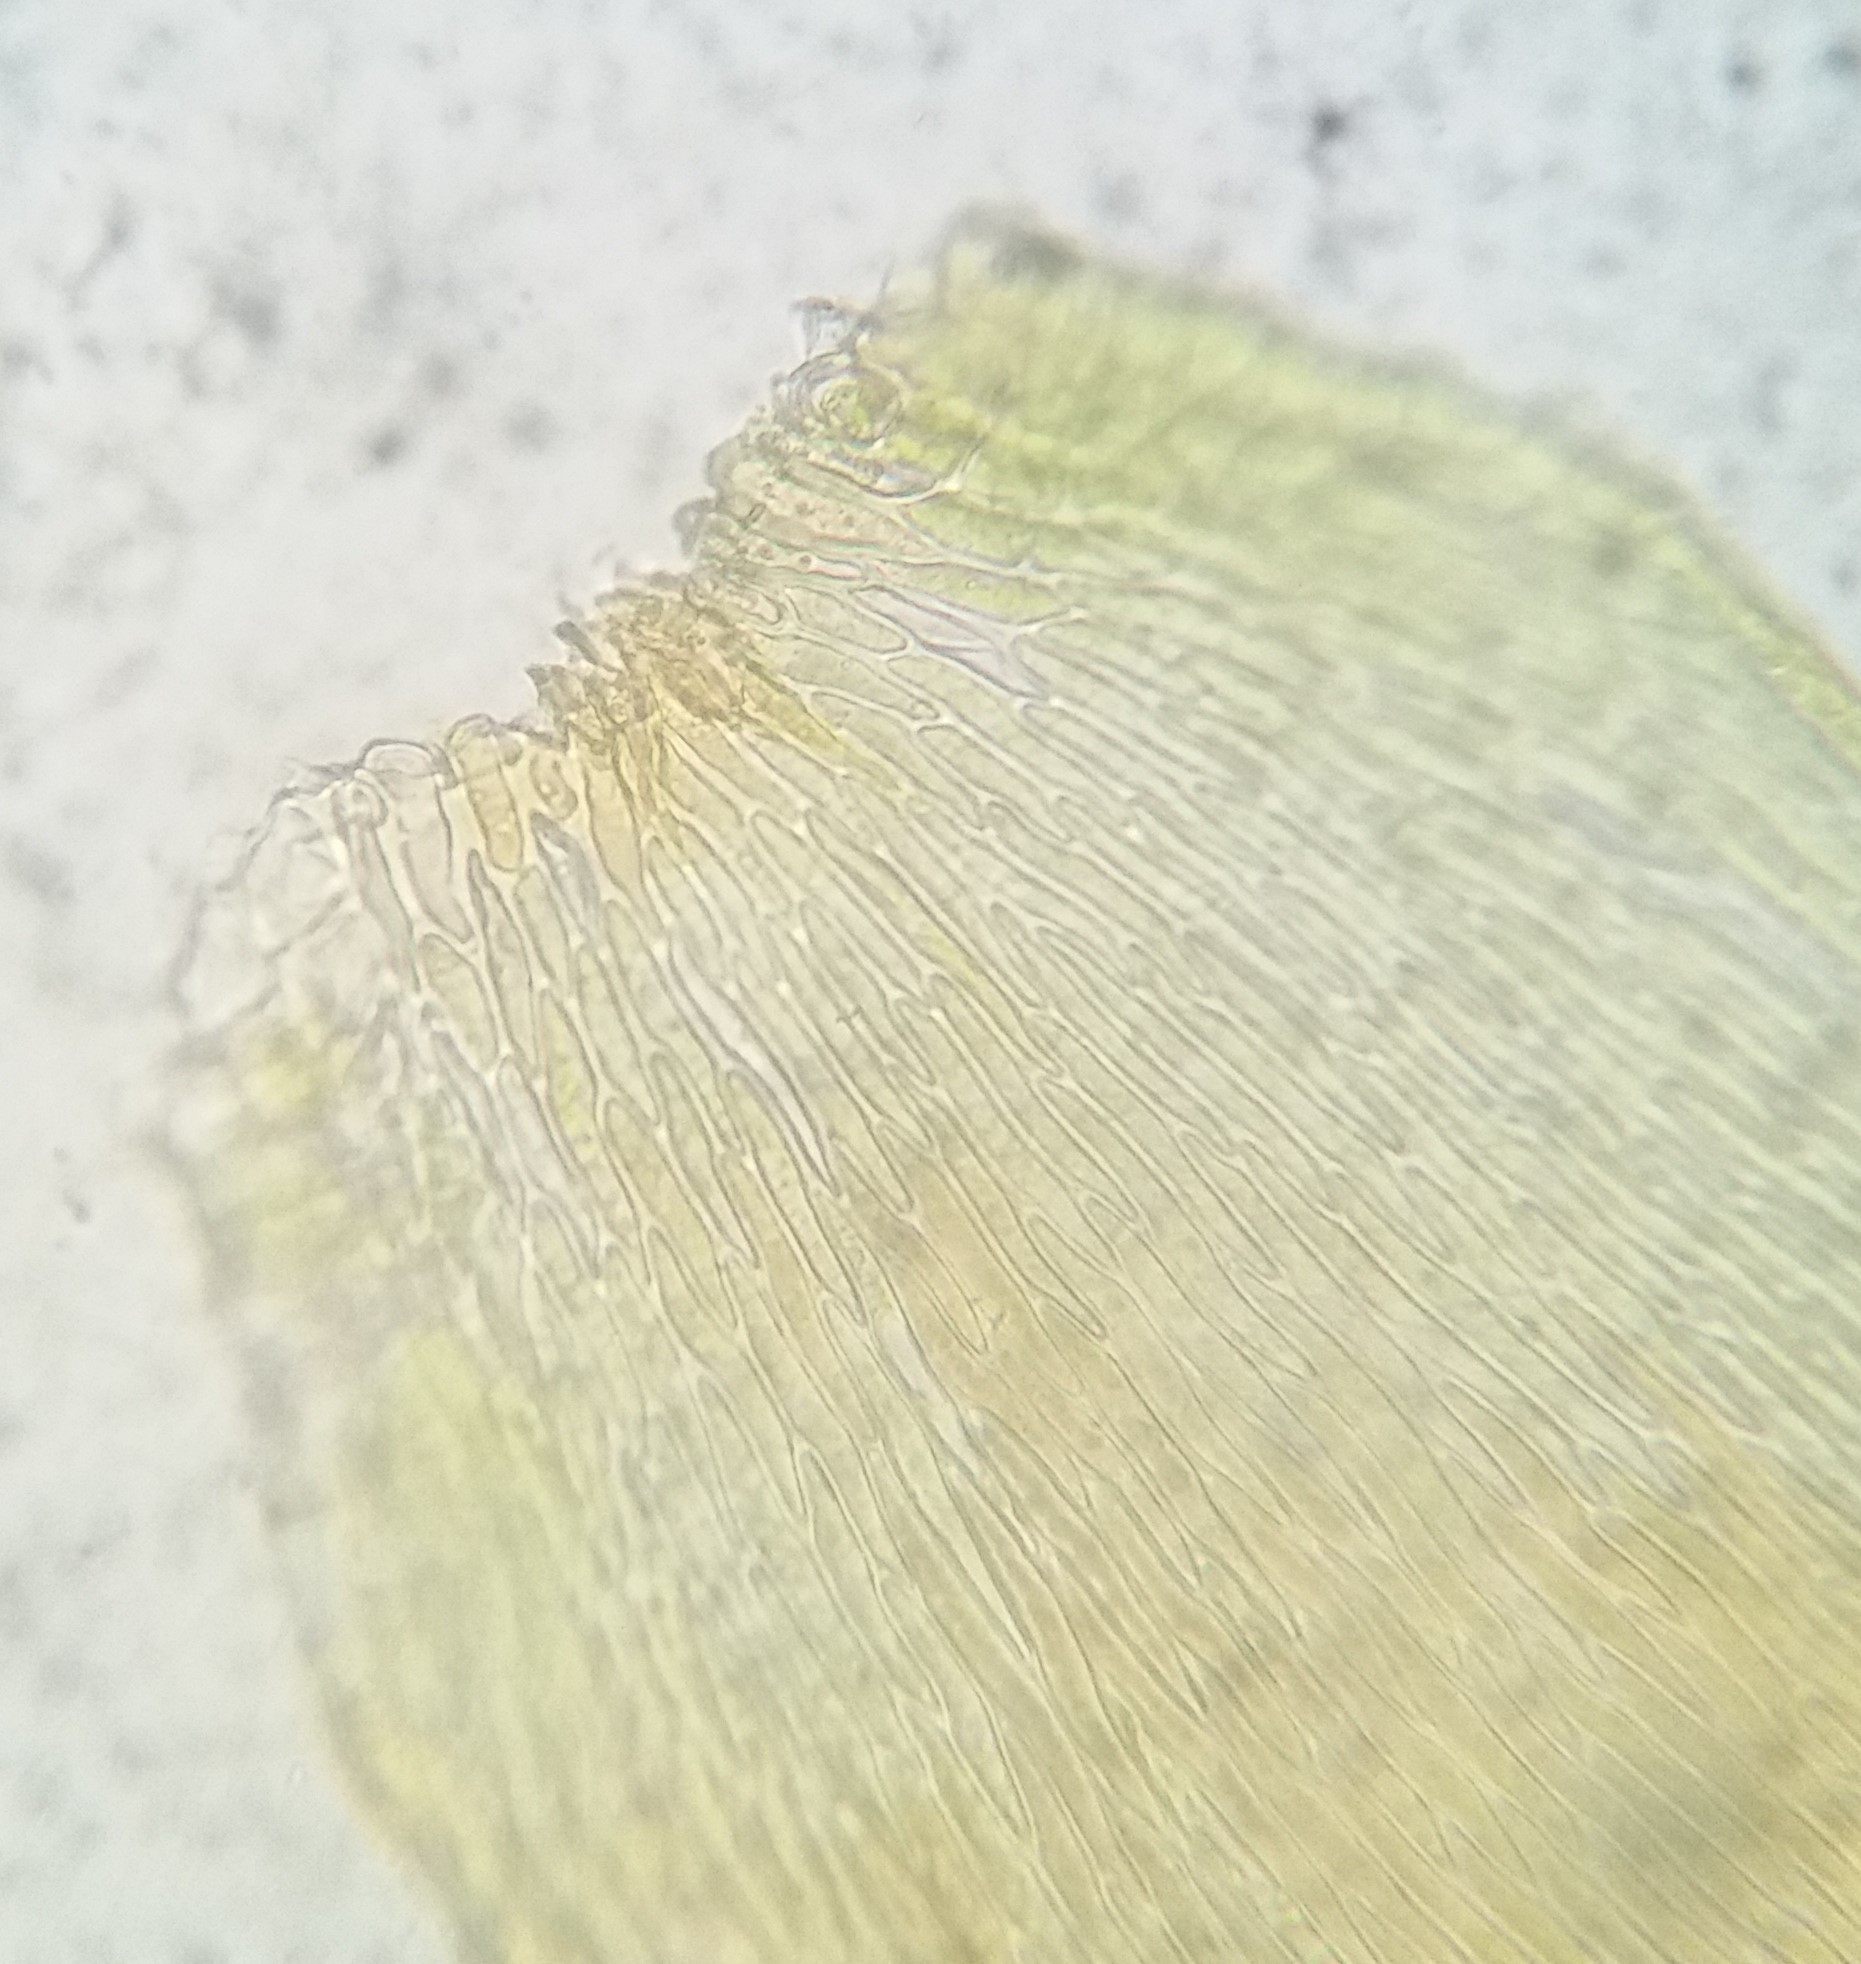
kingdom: Plantae
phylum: Bryophyta
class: Bryopsida
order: Hypnales
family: Pylaisiadelphaceae
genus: Pylaisiadelpha
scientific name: Pylaisiadelpha tenuirostris
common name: Pylaisiadelpha moss
